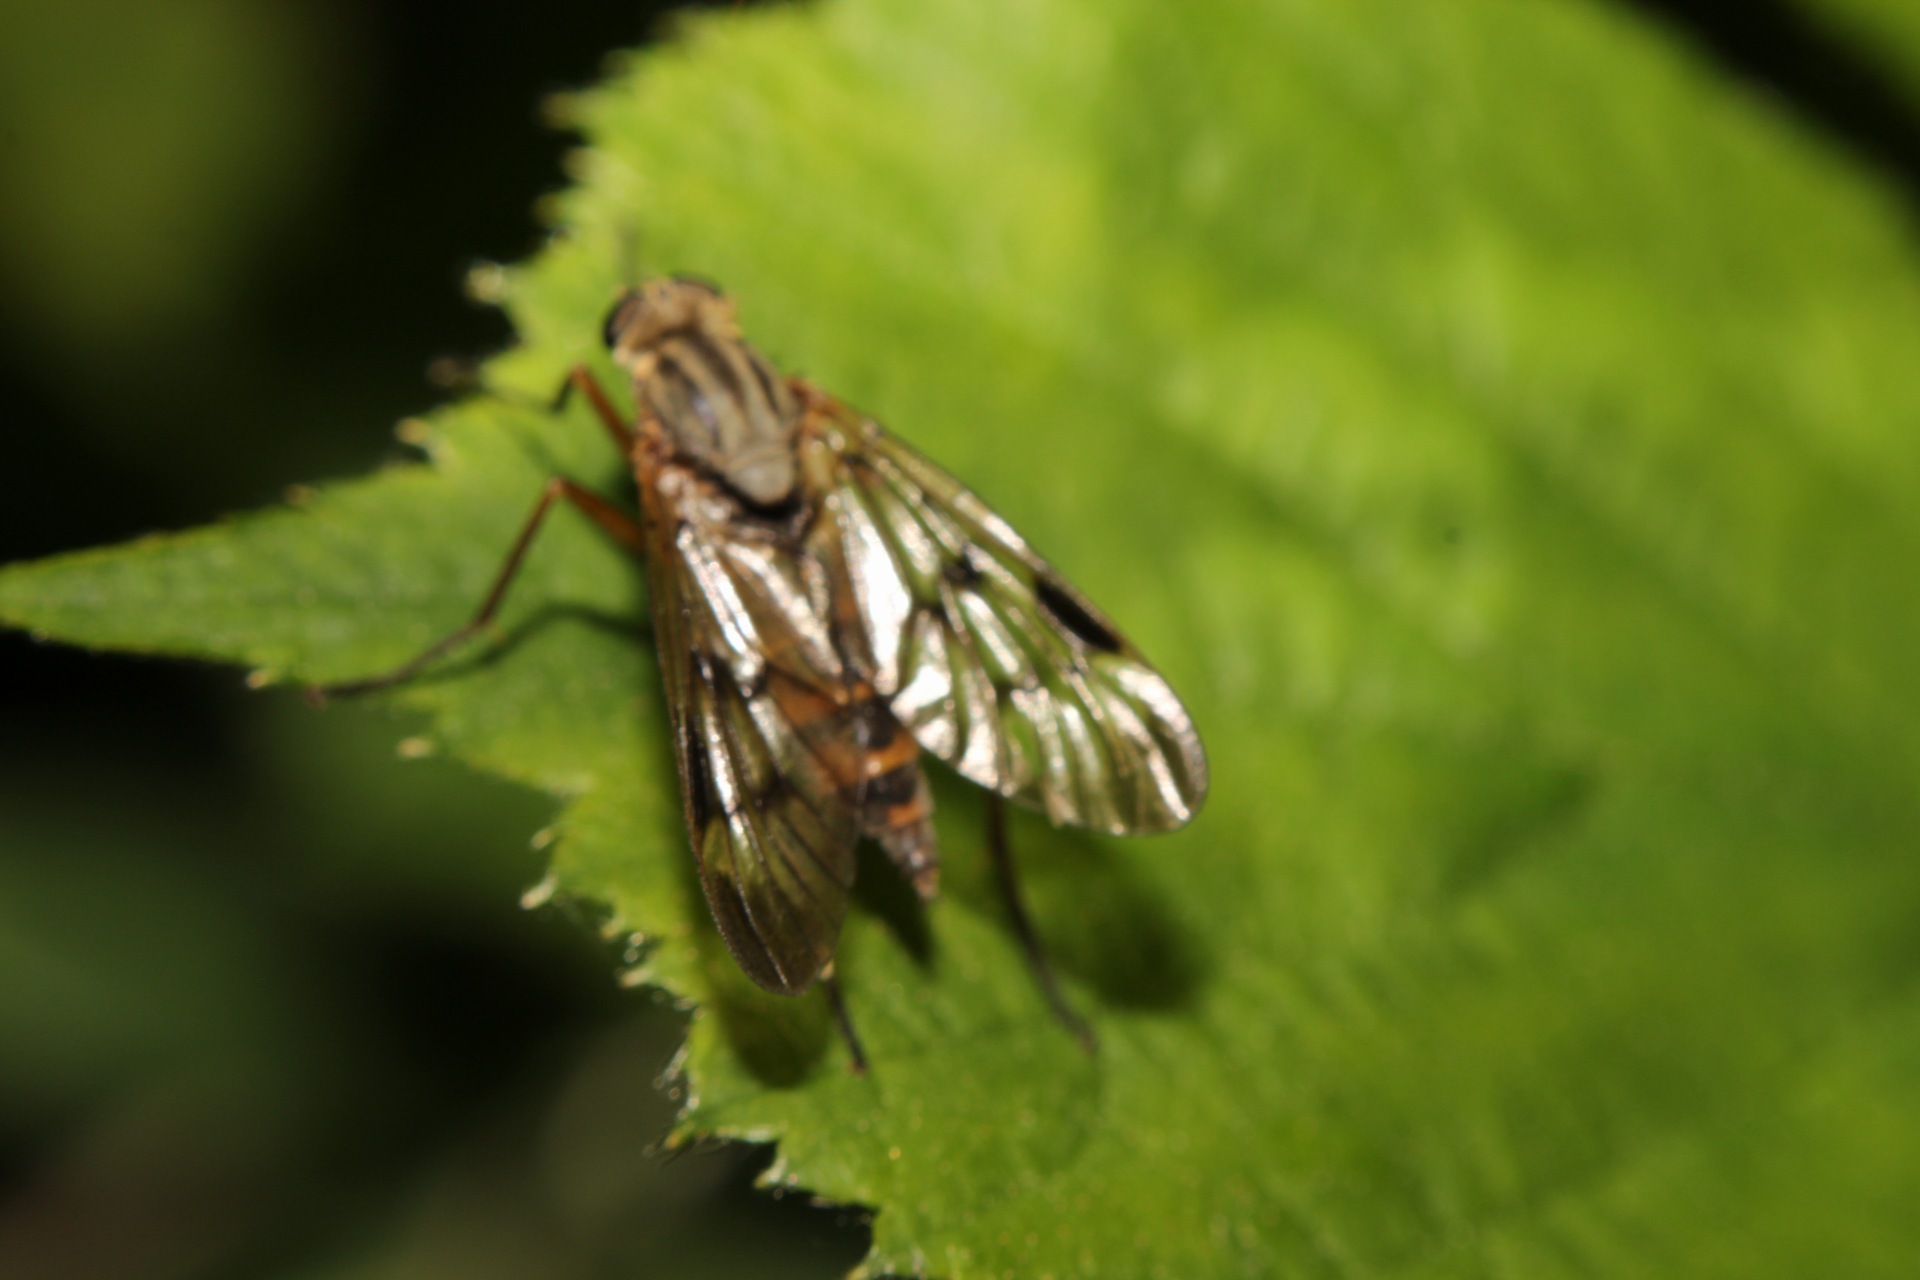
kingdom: Animalia
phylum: Arthropoda
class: Insecta
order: Diptera
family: Rhagionidae
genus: Rhagio
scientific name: Rhagio scolopacea
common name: Downlooker snipefly
